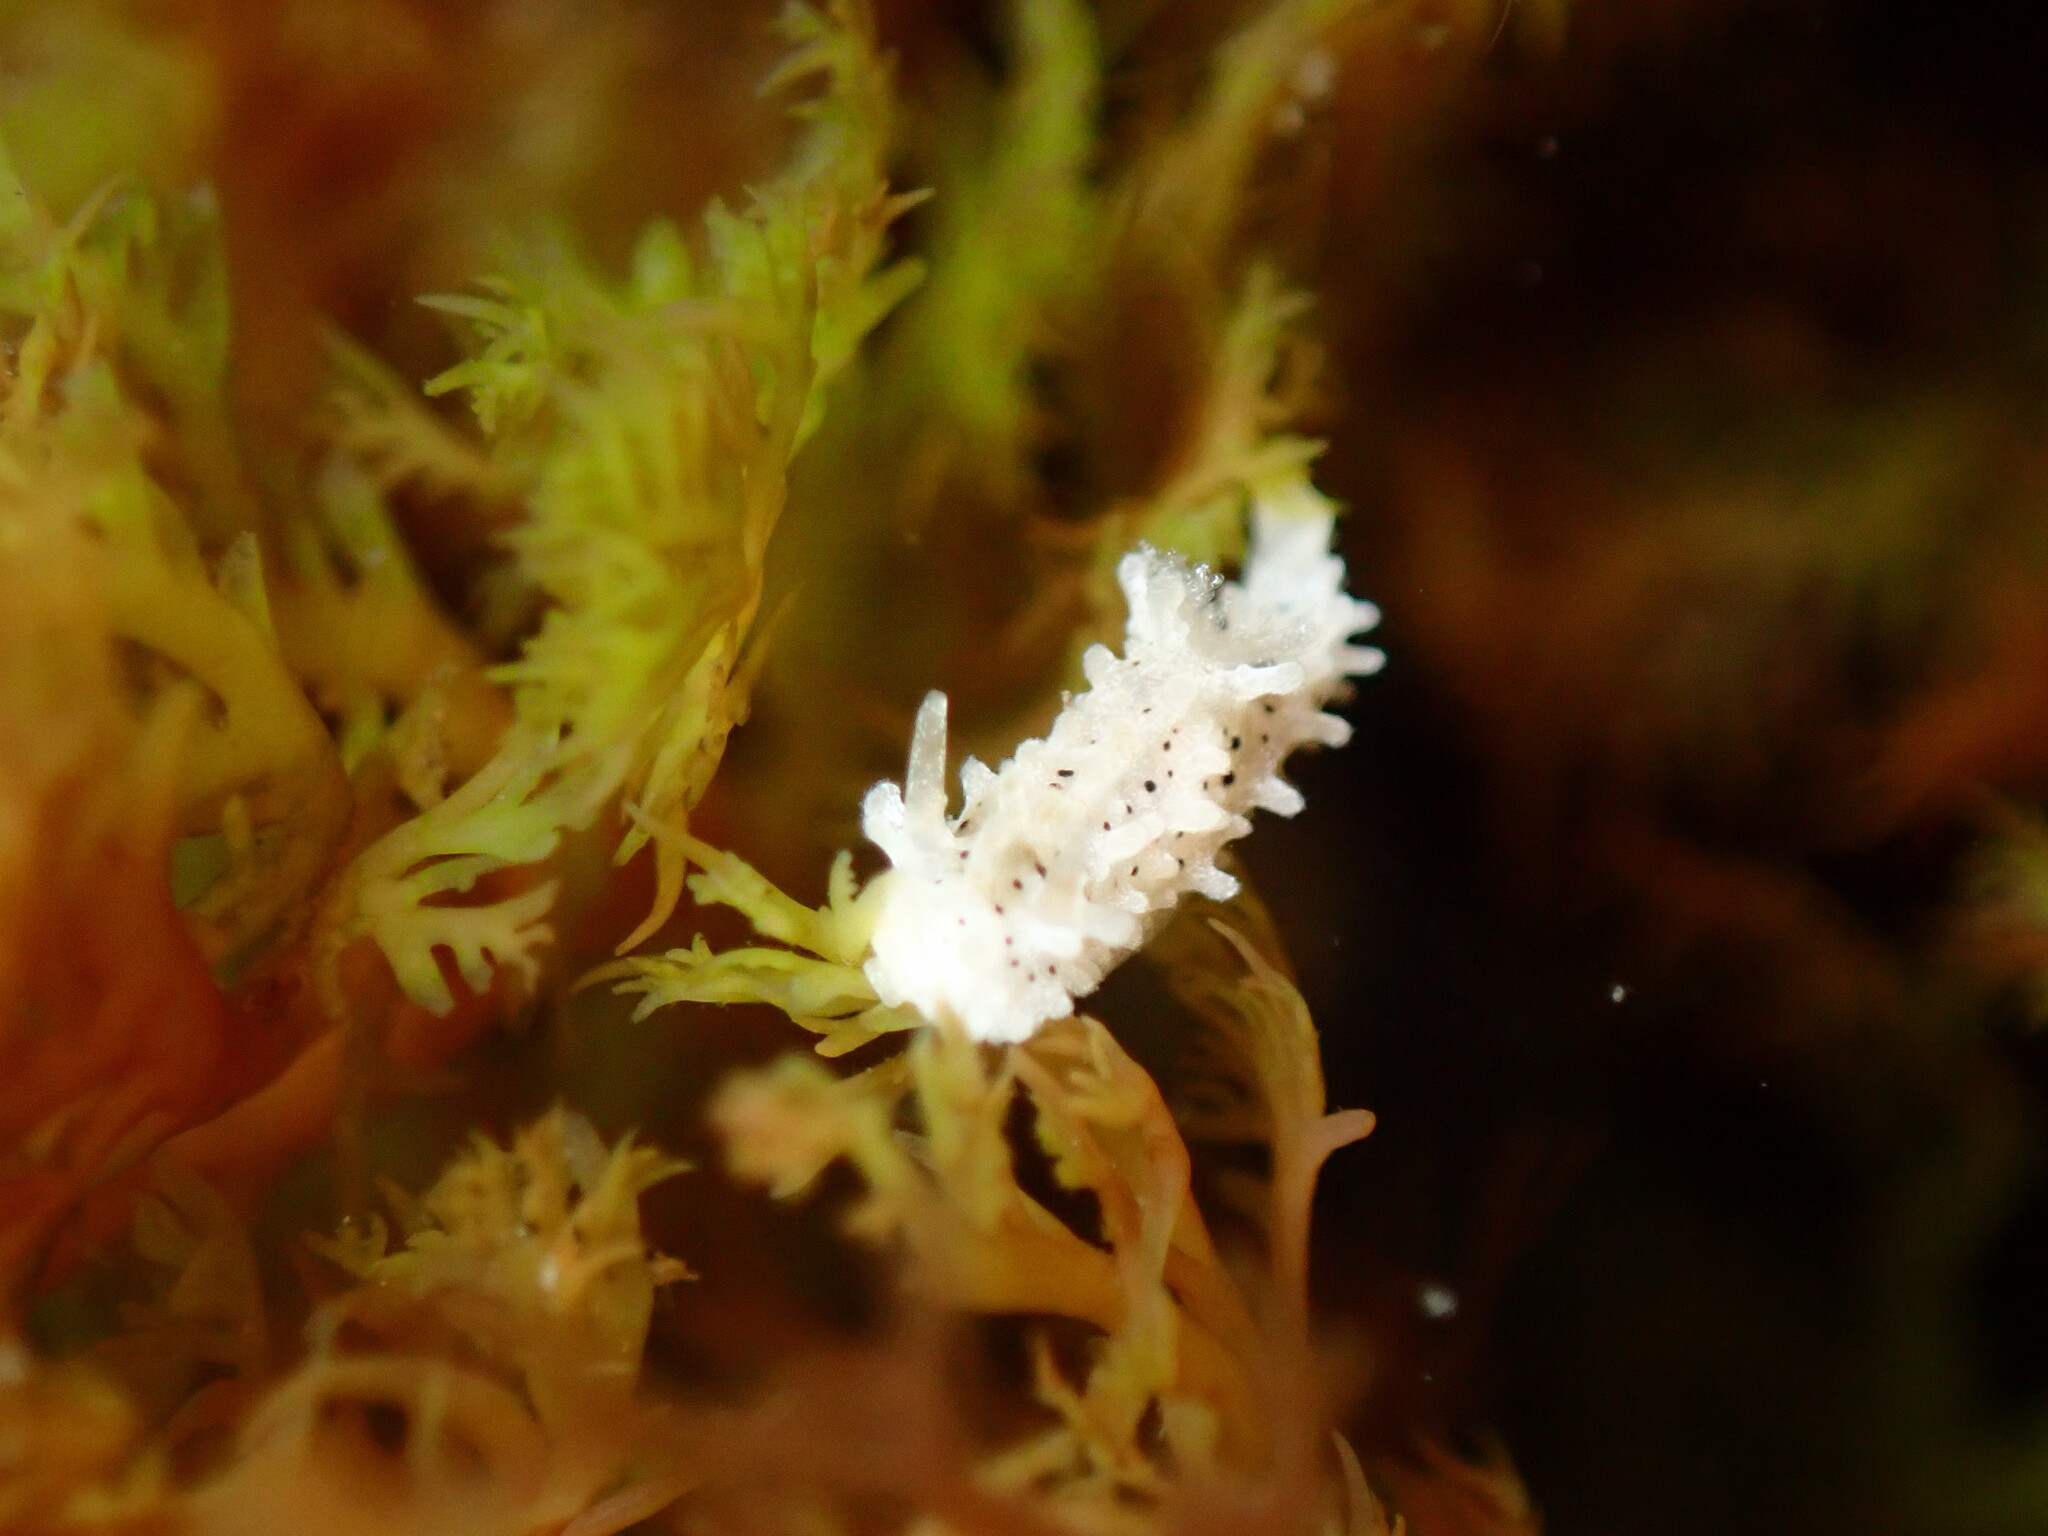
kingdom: Animalia
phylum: Mollusca
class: Gastropoda
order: Nudibranchia
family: Aegiridae
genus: Aegires
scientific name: Aegires albopunctatus
